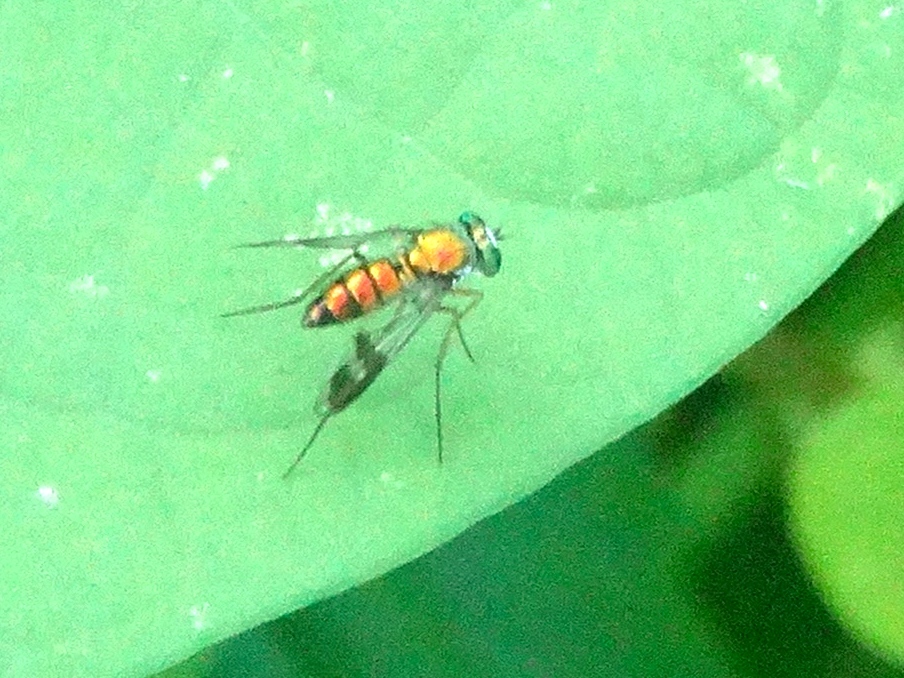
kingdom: Animalia
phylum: Arthropoda
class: Insecta
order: Diptera
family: Dolichopodidae
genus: Condylostylus
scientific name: Condylostylus
